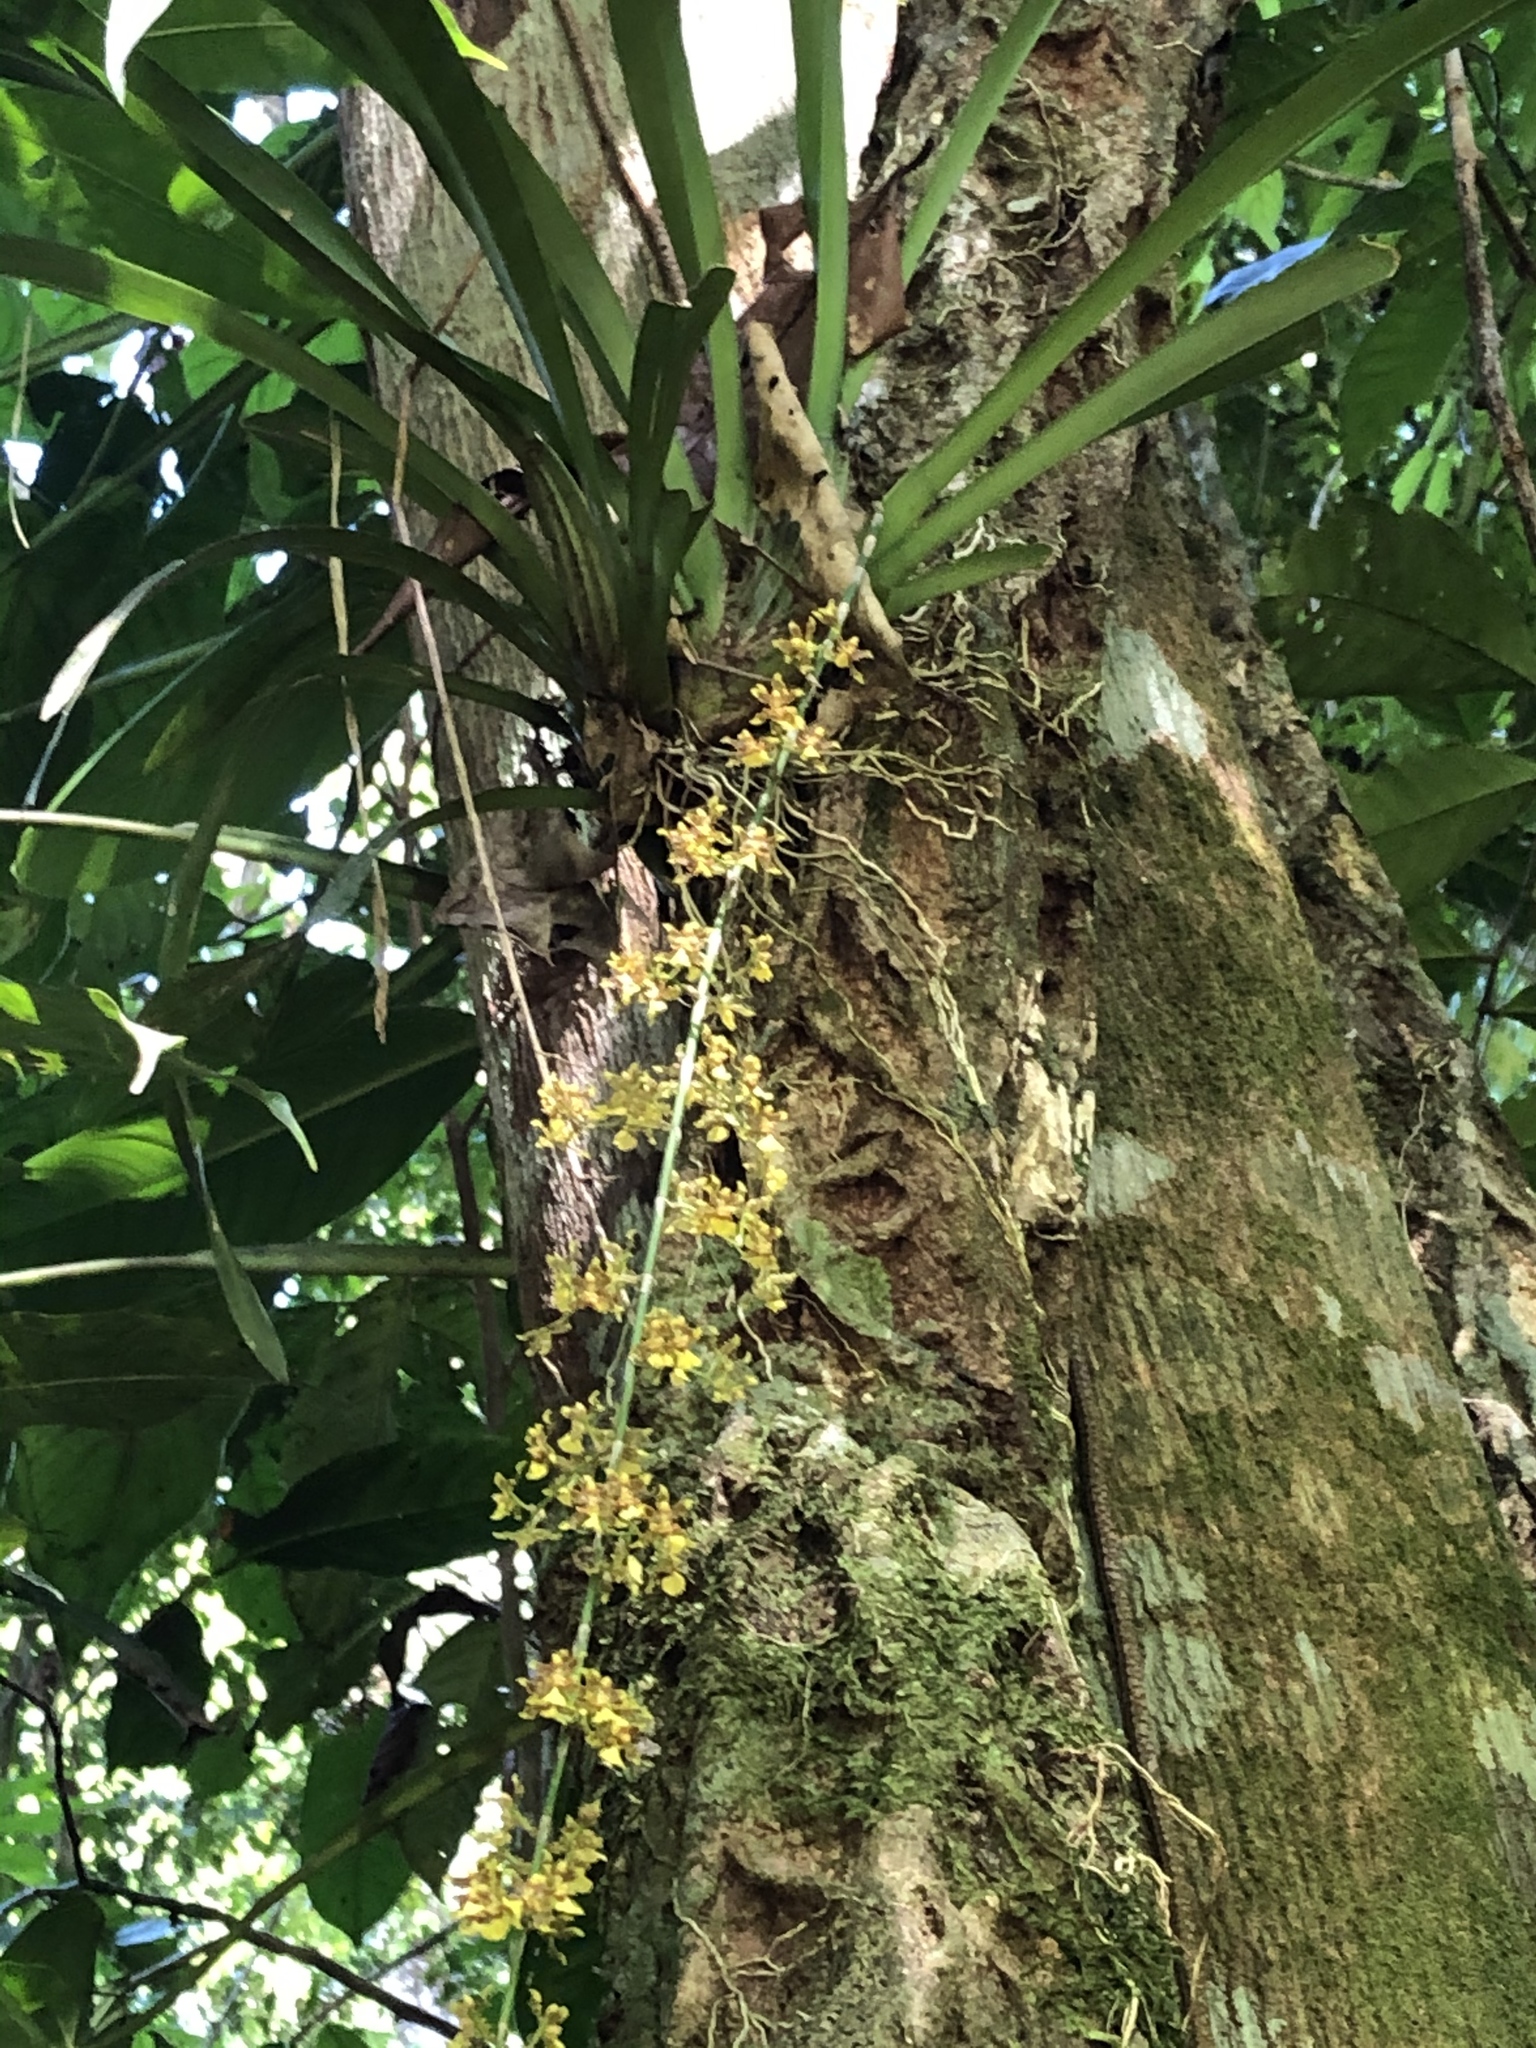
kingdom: Plantae
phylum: Tracheophyta
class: Liliopsida
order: Asparagales
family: Orchidaceae
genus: Oncidium
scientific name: Oncidium polycladium
